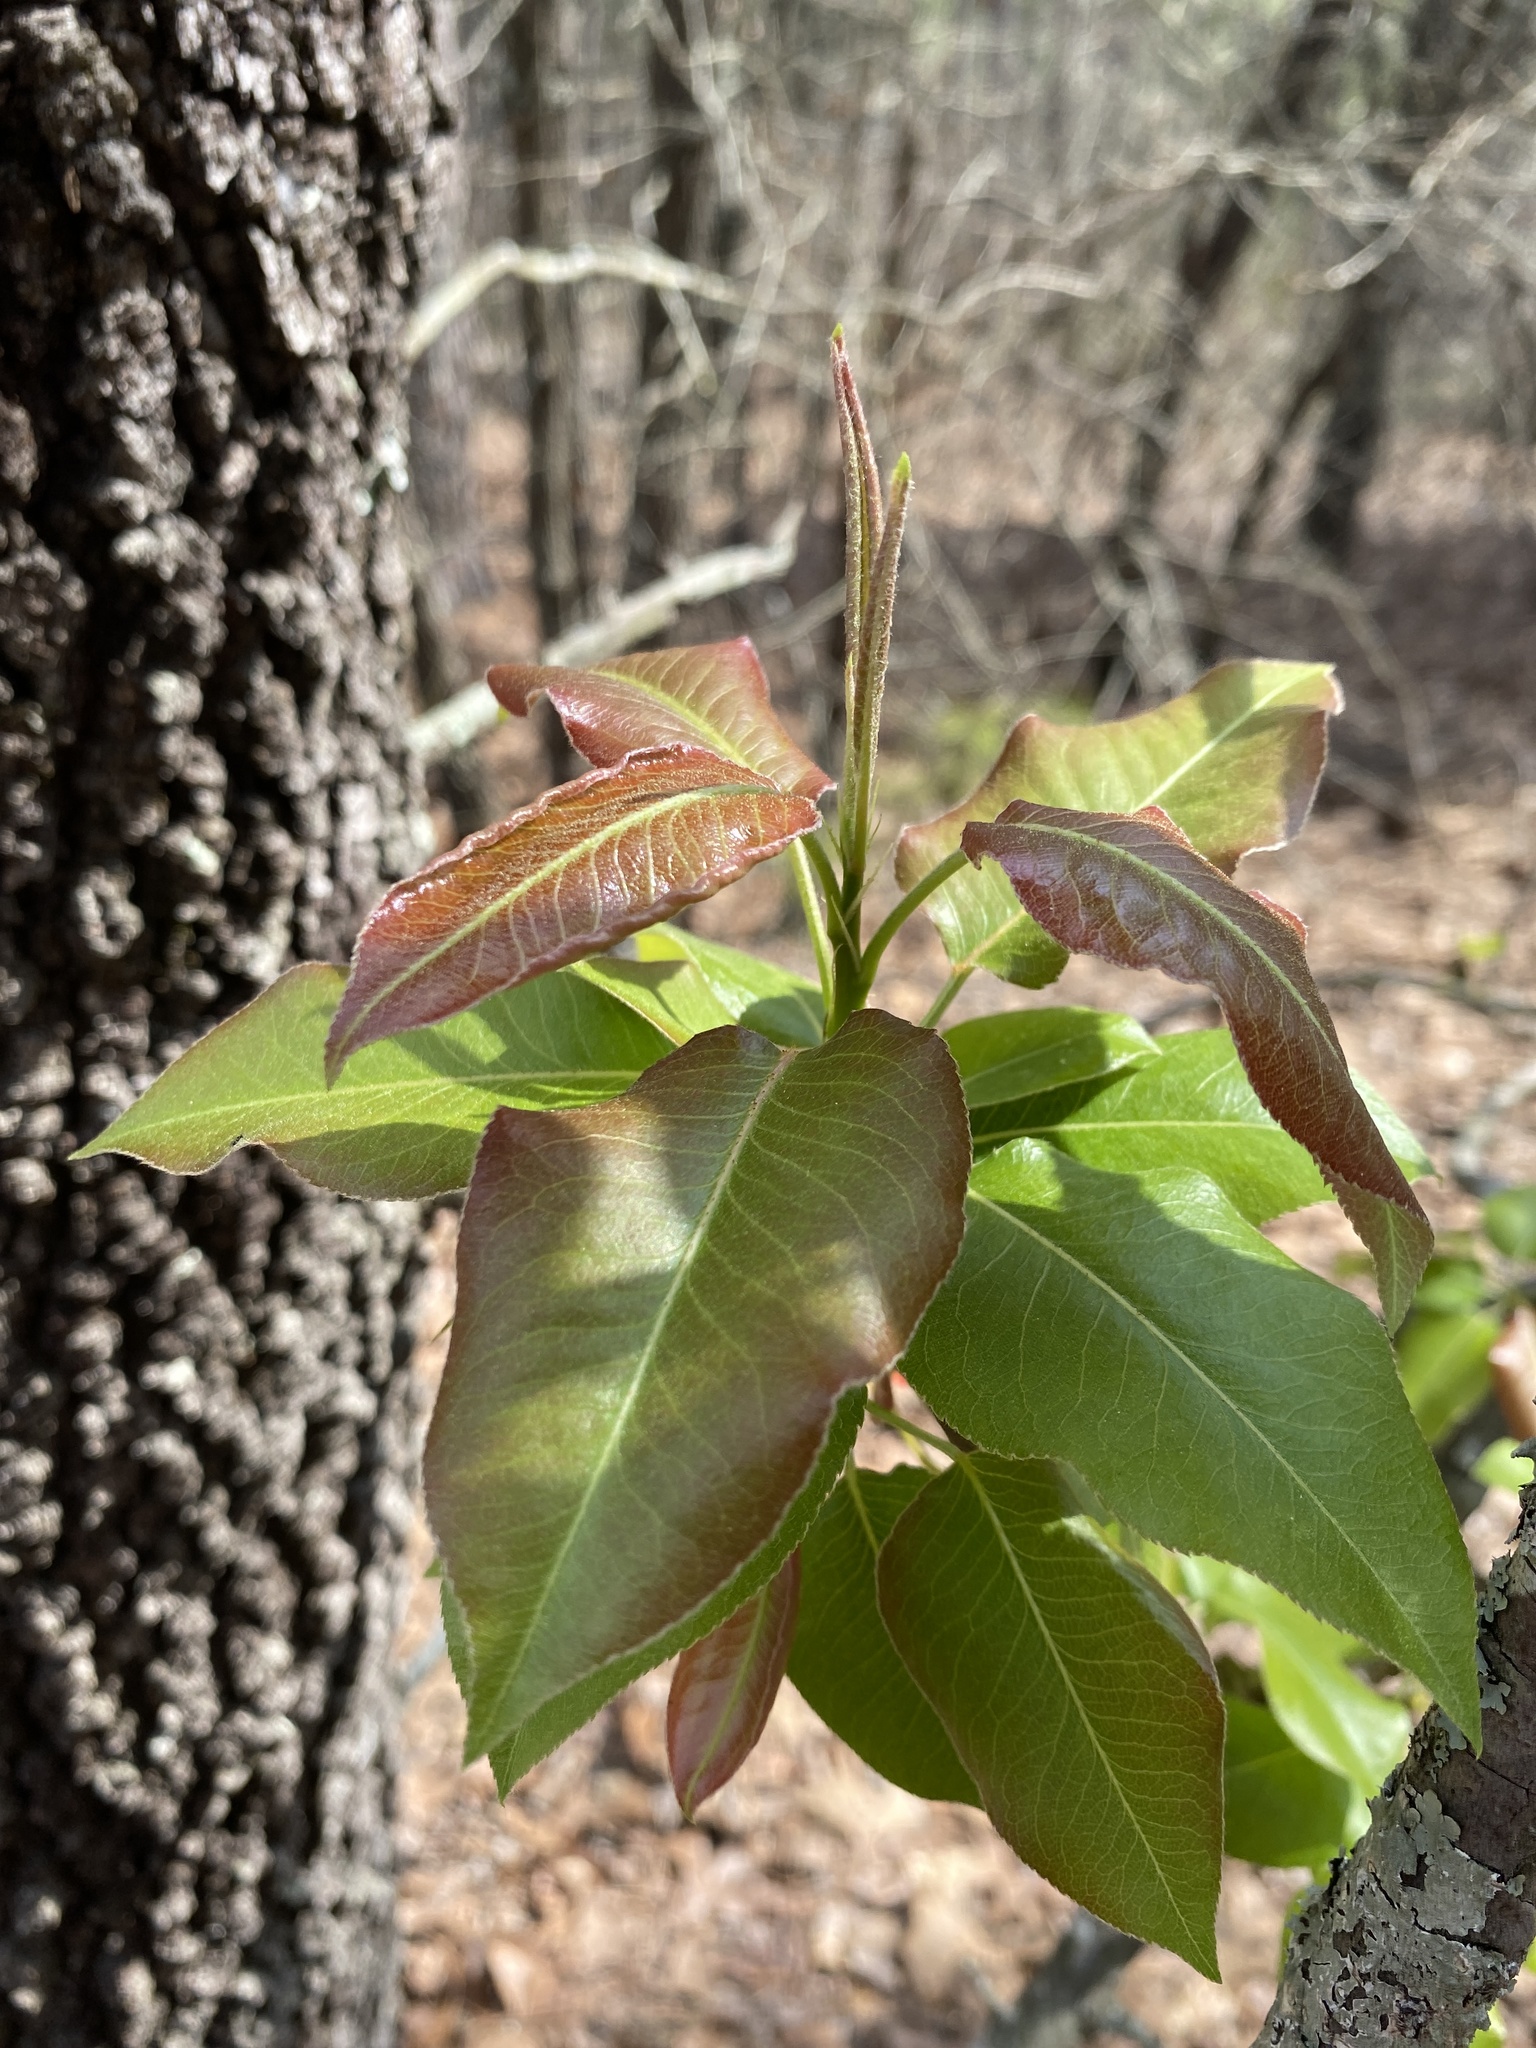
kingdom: Plantae
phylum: Tracheophyta
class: Magnoliopsida
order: Rosales
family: Rosaceae
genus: Pyrus
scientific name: Pyrus calleryana
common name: Callery pear
